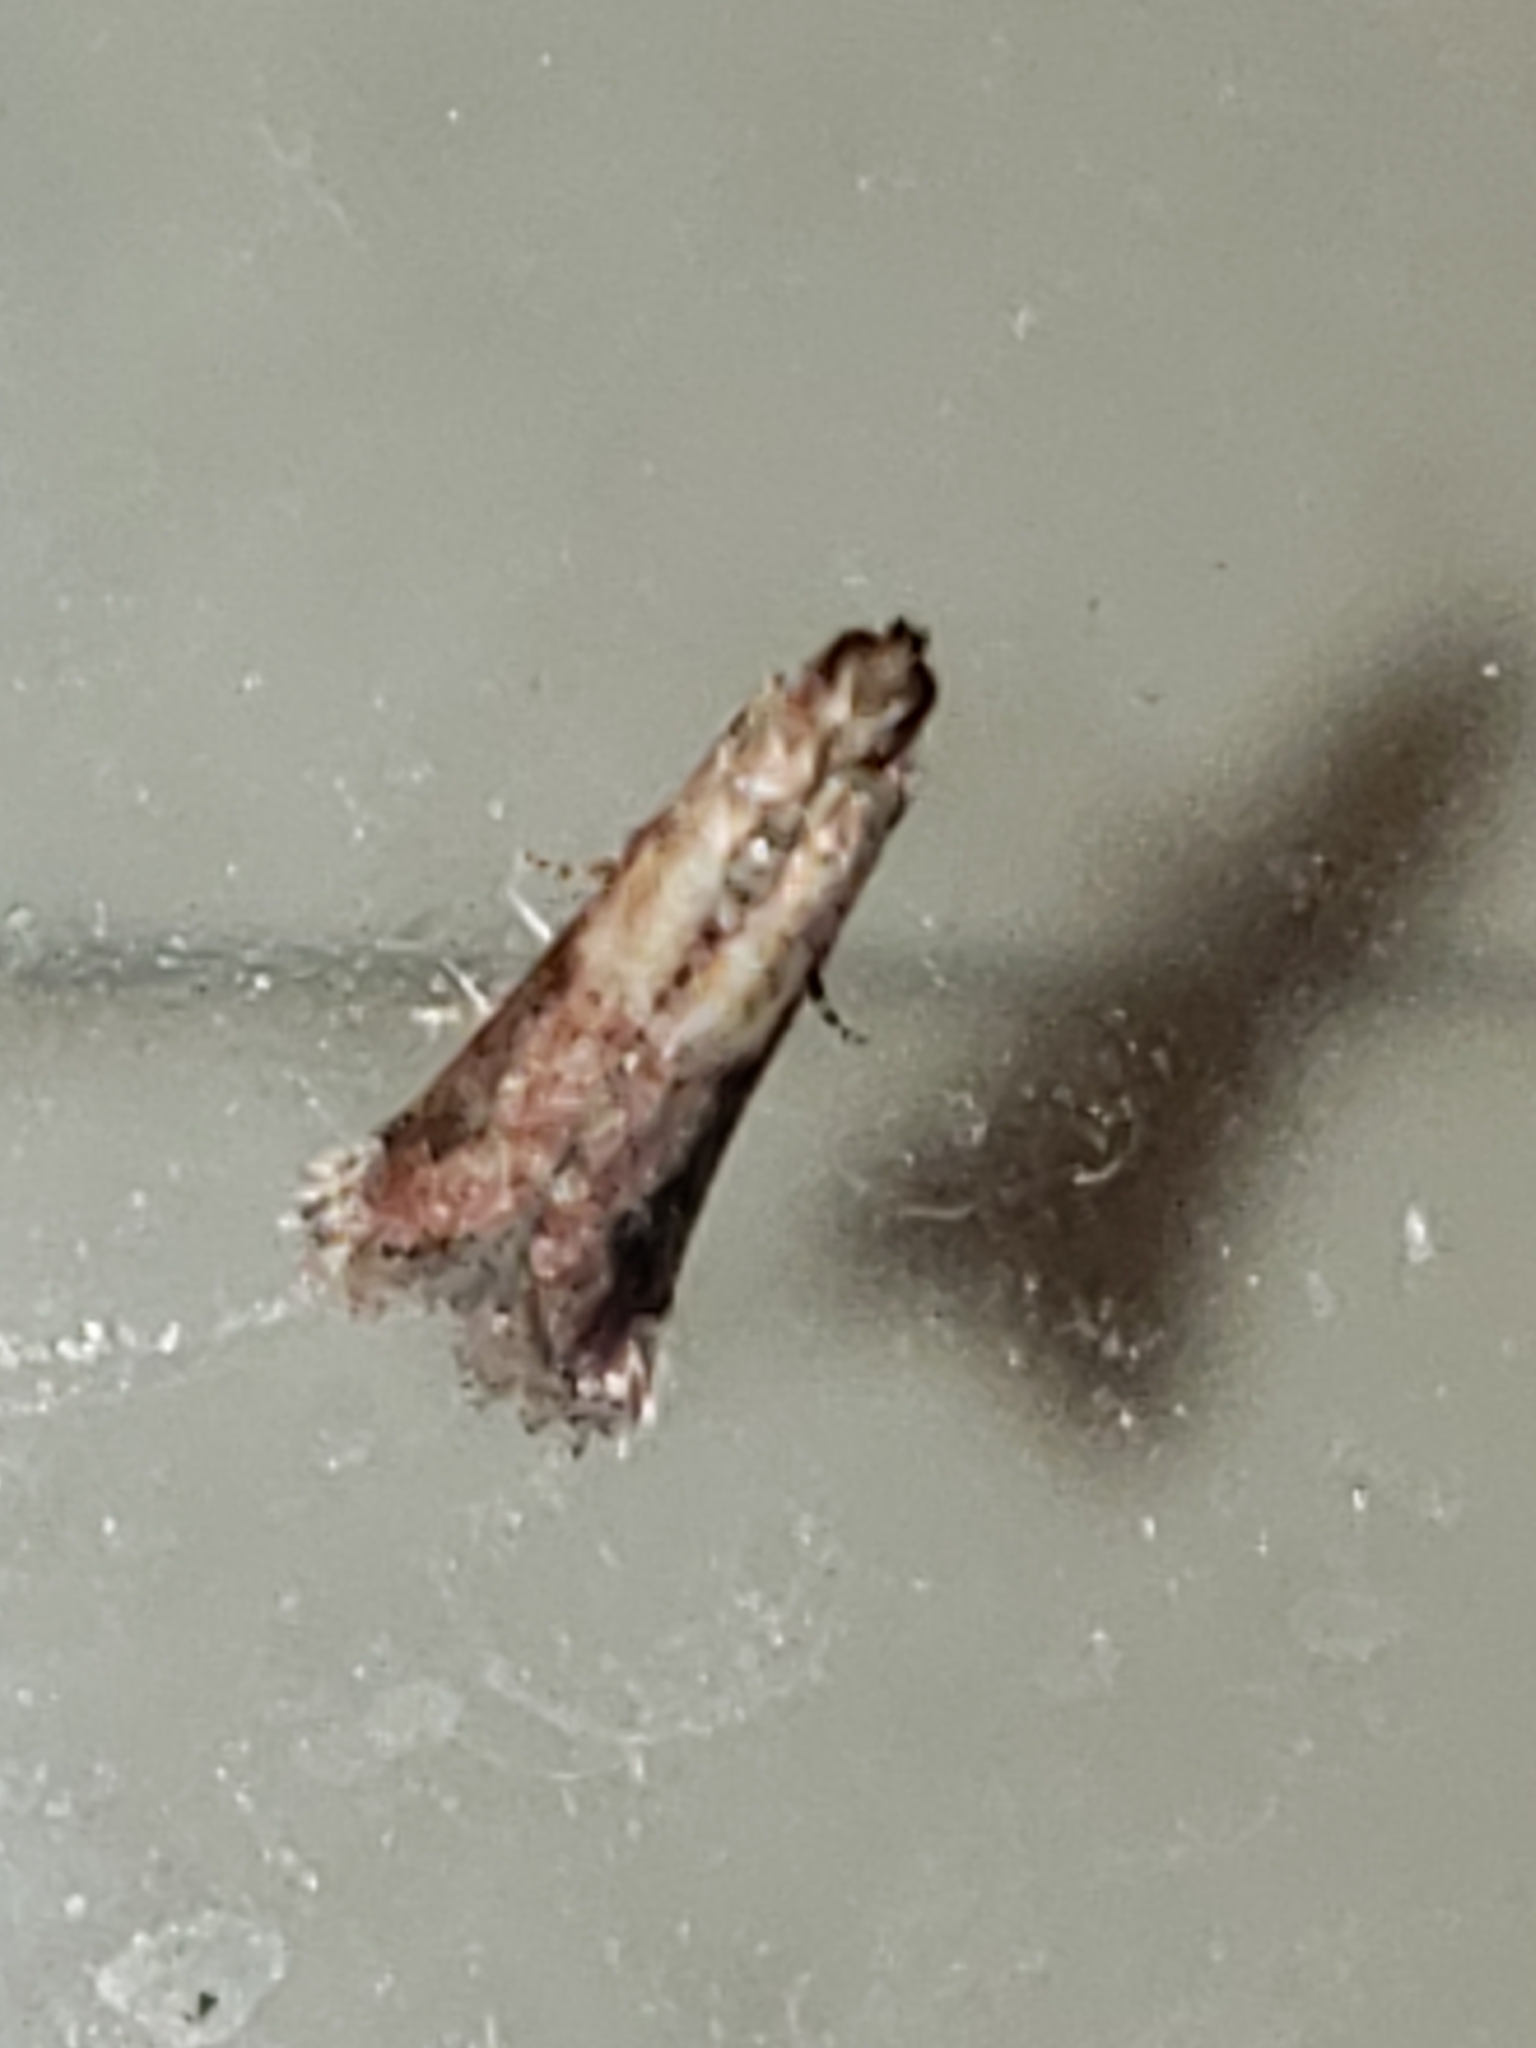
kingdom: Animalia
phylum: Arthropoda
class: Insecta
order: Lepidoptera
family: Pyralidae
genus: Ephestiodes
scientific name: Ephestiodes infimella
